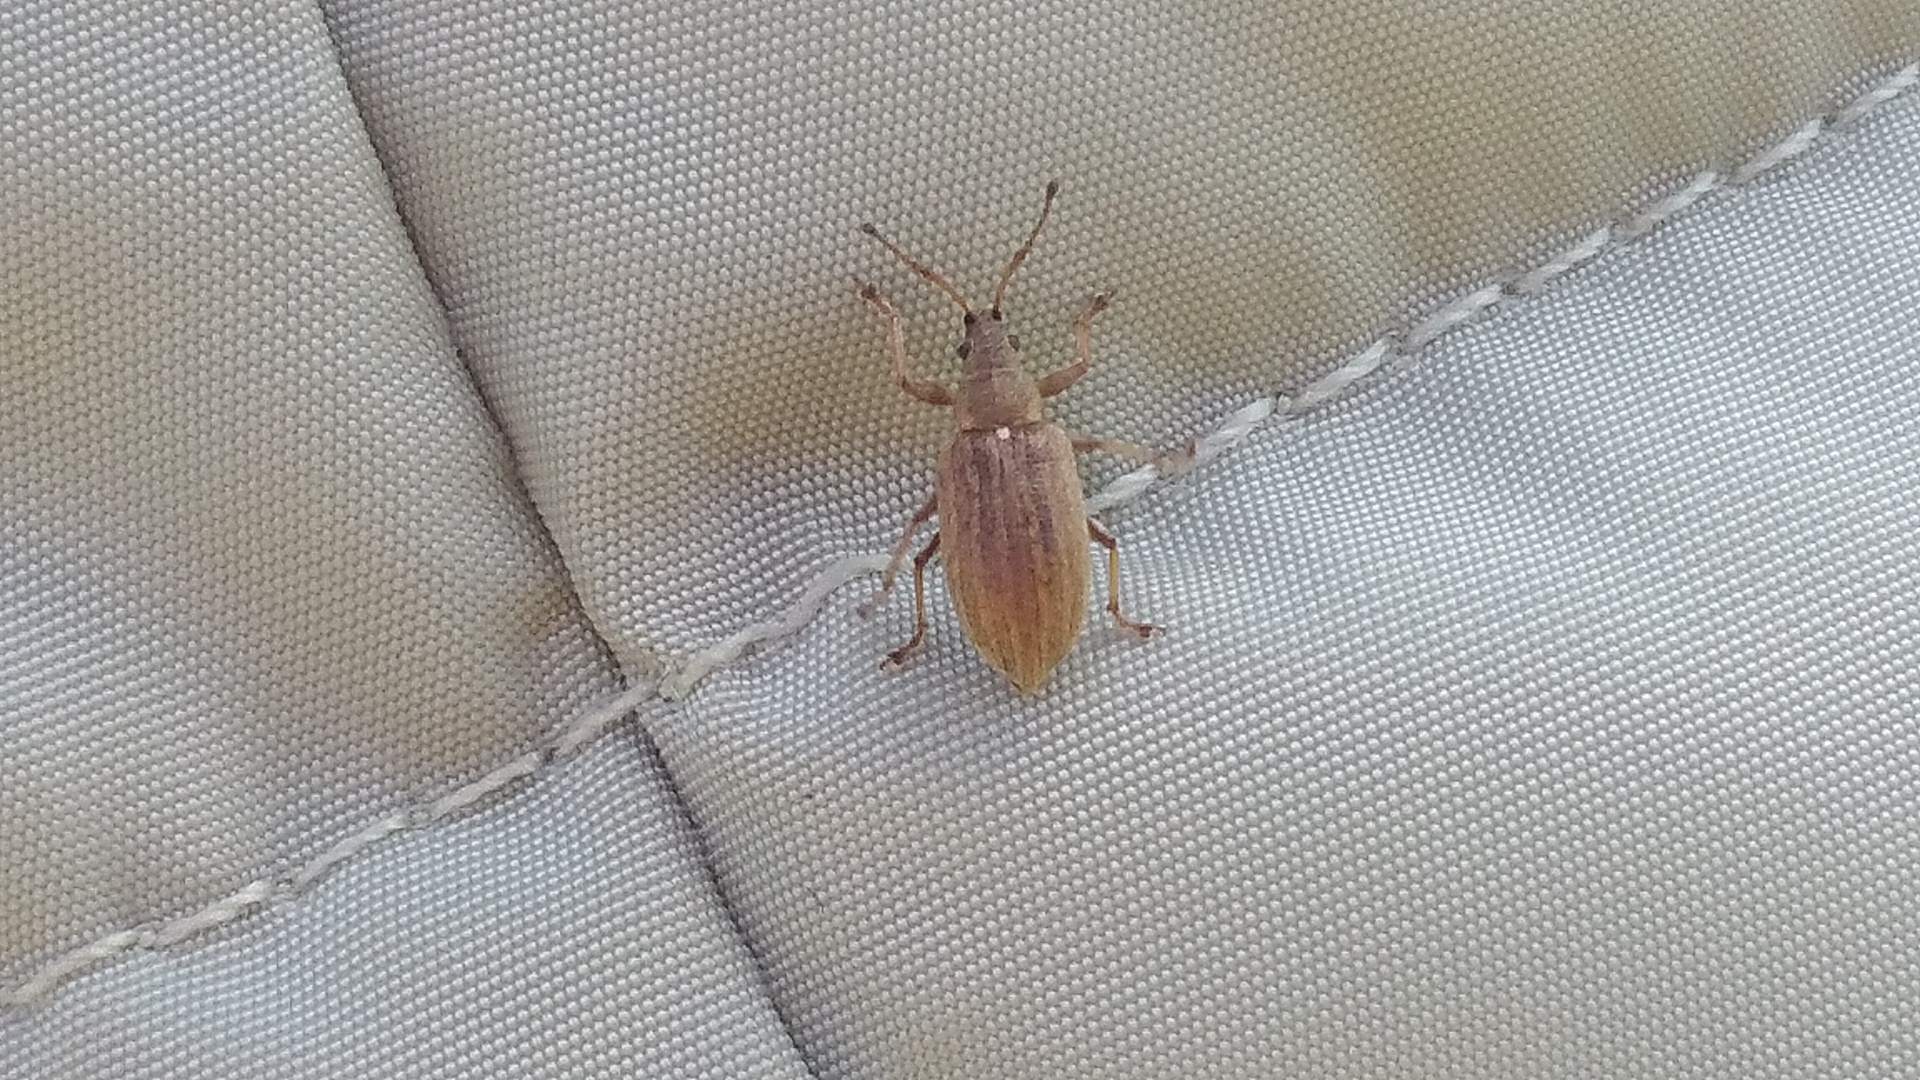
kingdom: Animalia
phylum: Arthropoda
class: Insecta
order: Coleoptera
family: Curculionidae
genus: Phyllobius
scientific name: Phyllobius pyri
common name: Common leaf weevil
